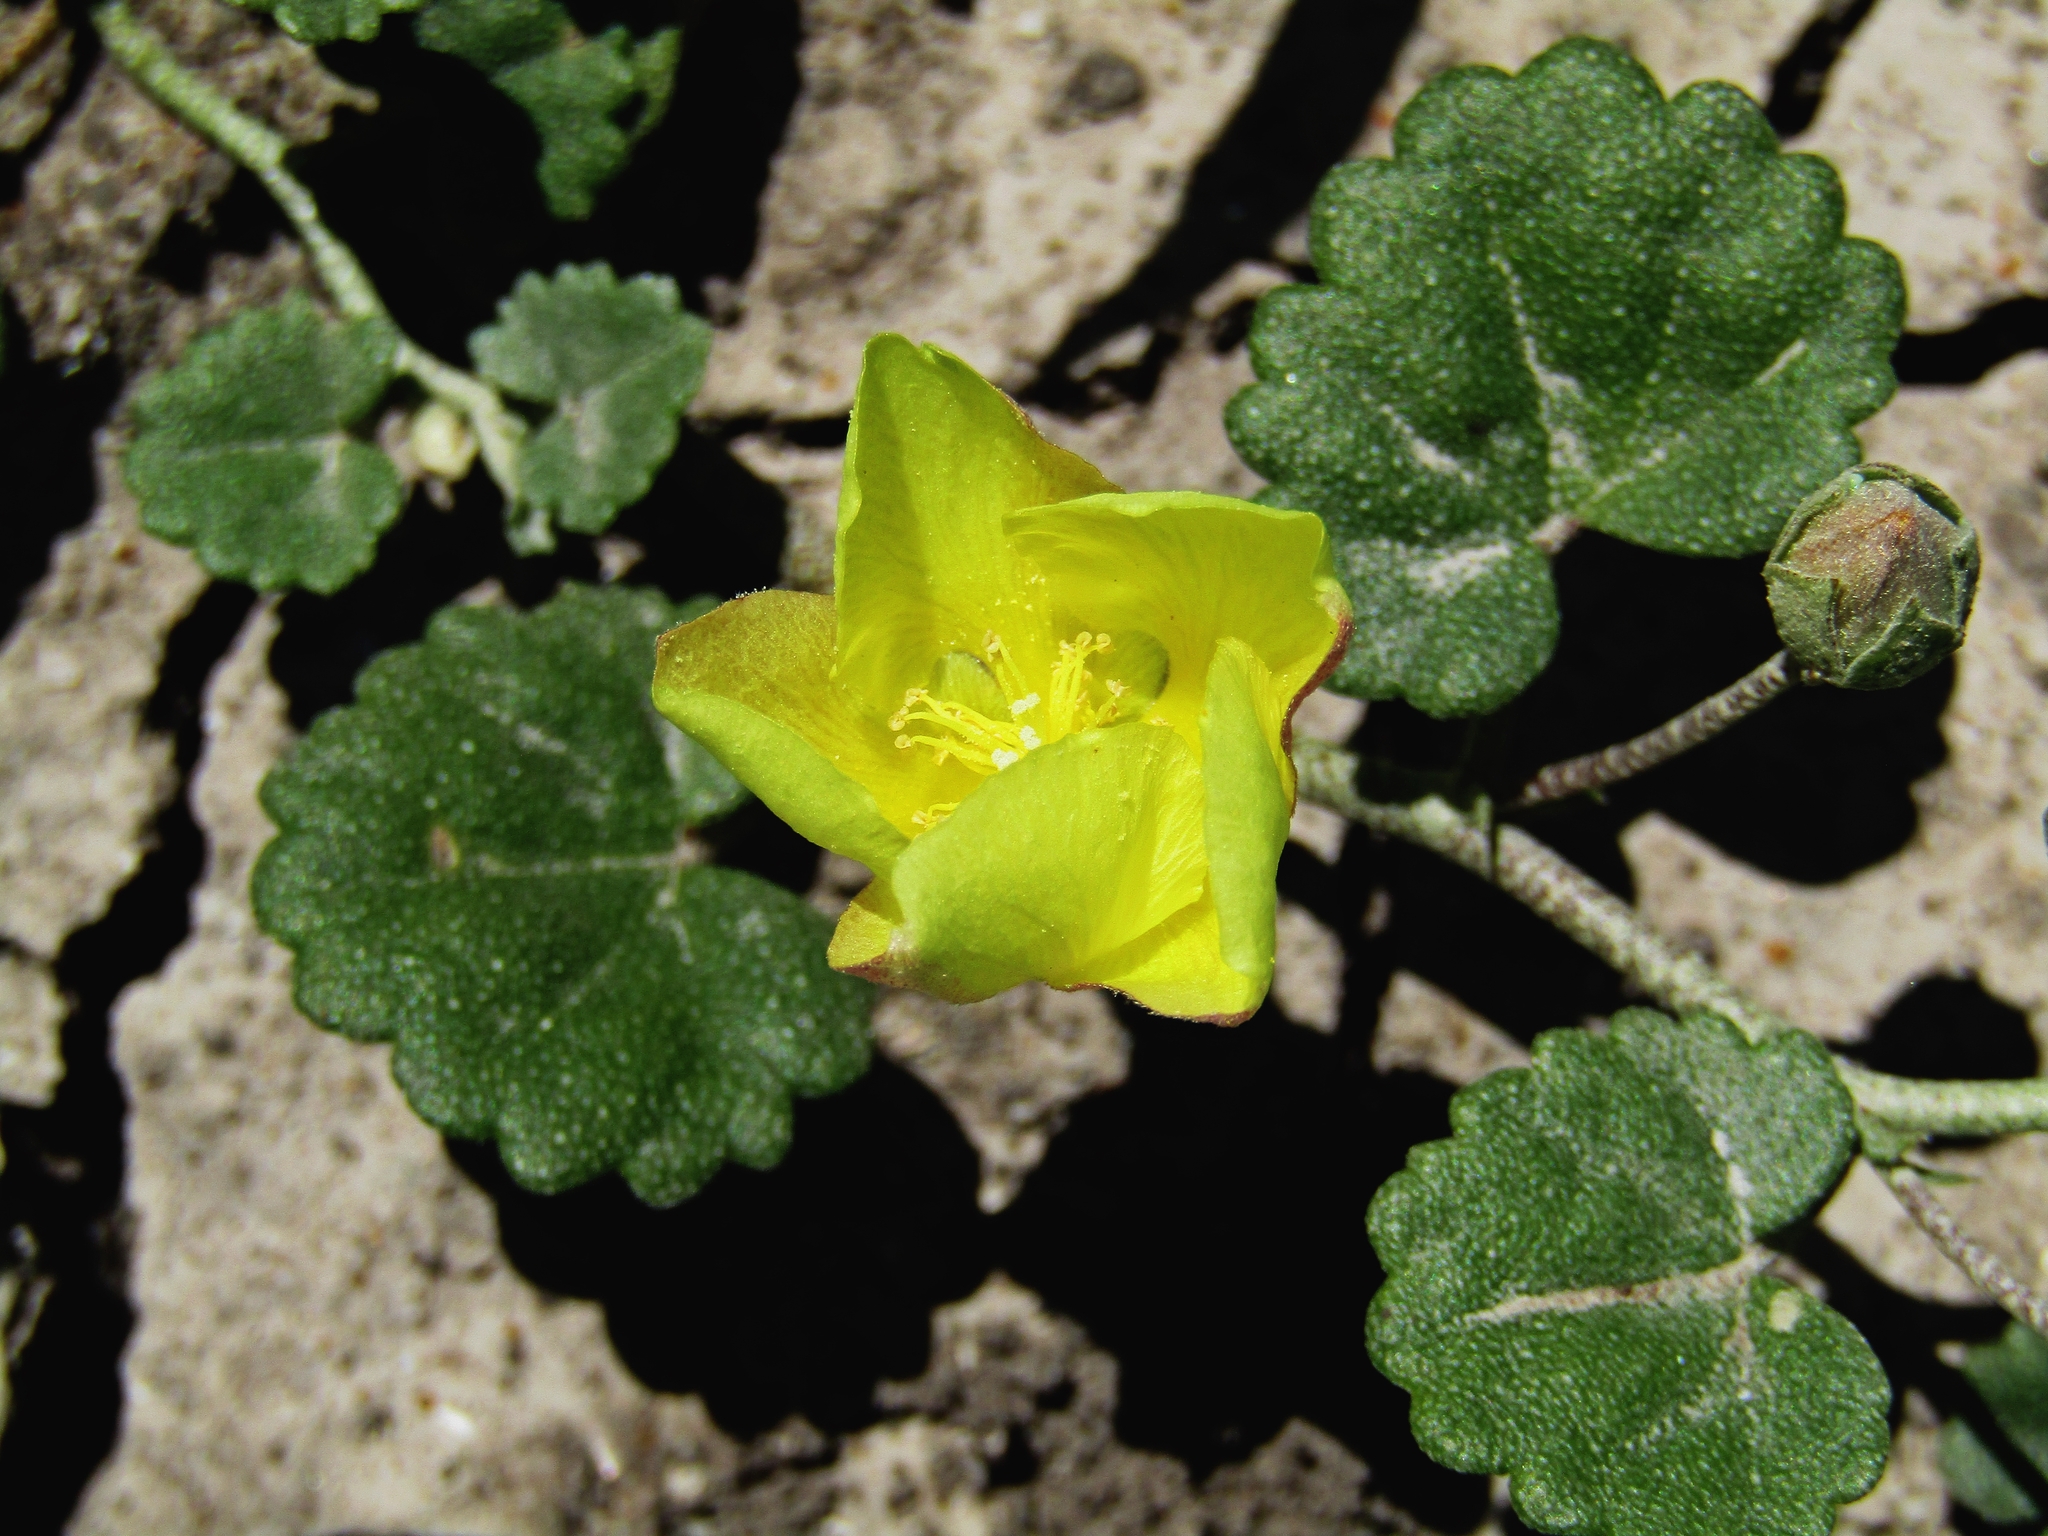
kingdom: Plantae
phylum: Tracheophyta
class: Magnoliopsida
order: Malvales
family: Malvaceae
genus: Malvella
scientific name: Malvella leprosa
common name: Alkali-mallow
